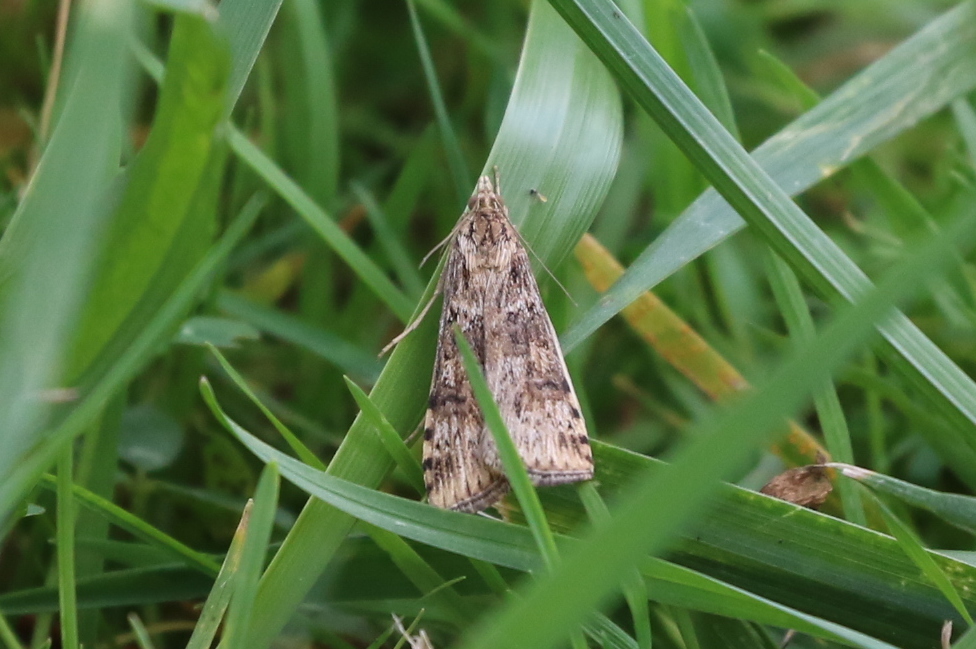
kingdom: Animalia
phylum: Arthropoda
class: Insecta
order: Lepidoptera
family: Crambidae
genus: Nomophila
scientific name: Nomophila nearctica
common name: American rush veneer
